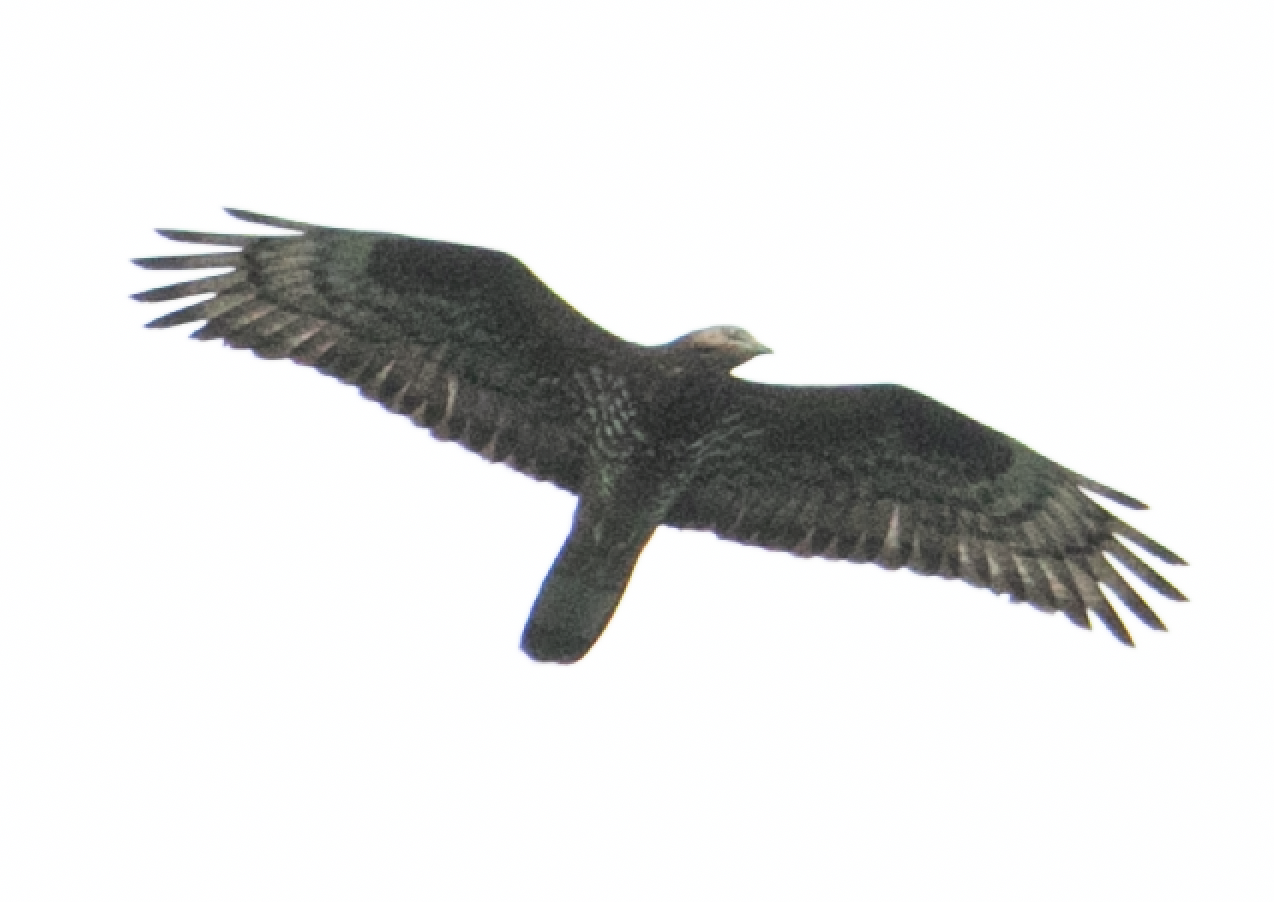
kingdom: Animalia
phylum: Chordata
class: Aves
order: Accipitriformes
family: Accipitridae
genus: Pernis
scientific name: Pernis apivorus
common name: European honey buzzard
